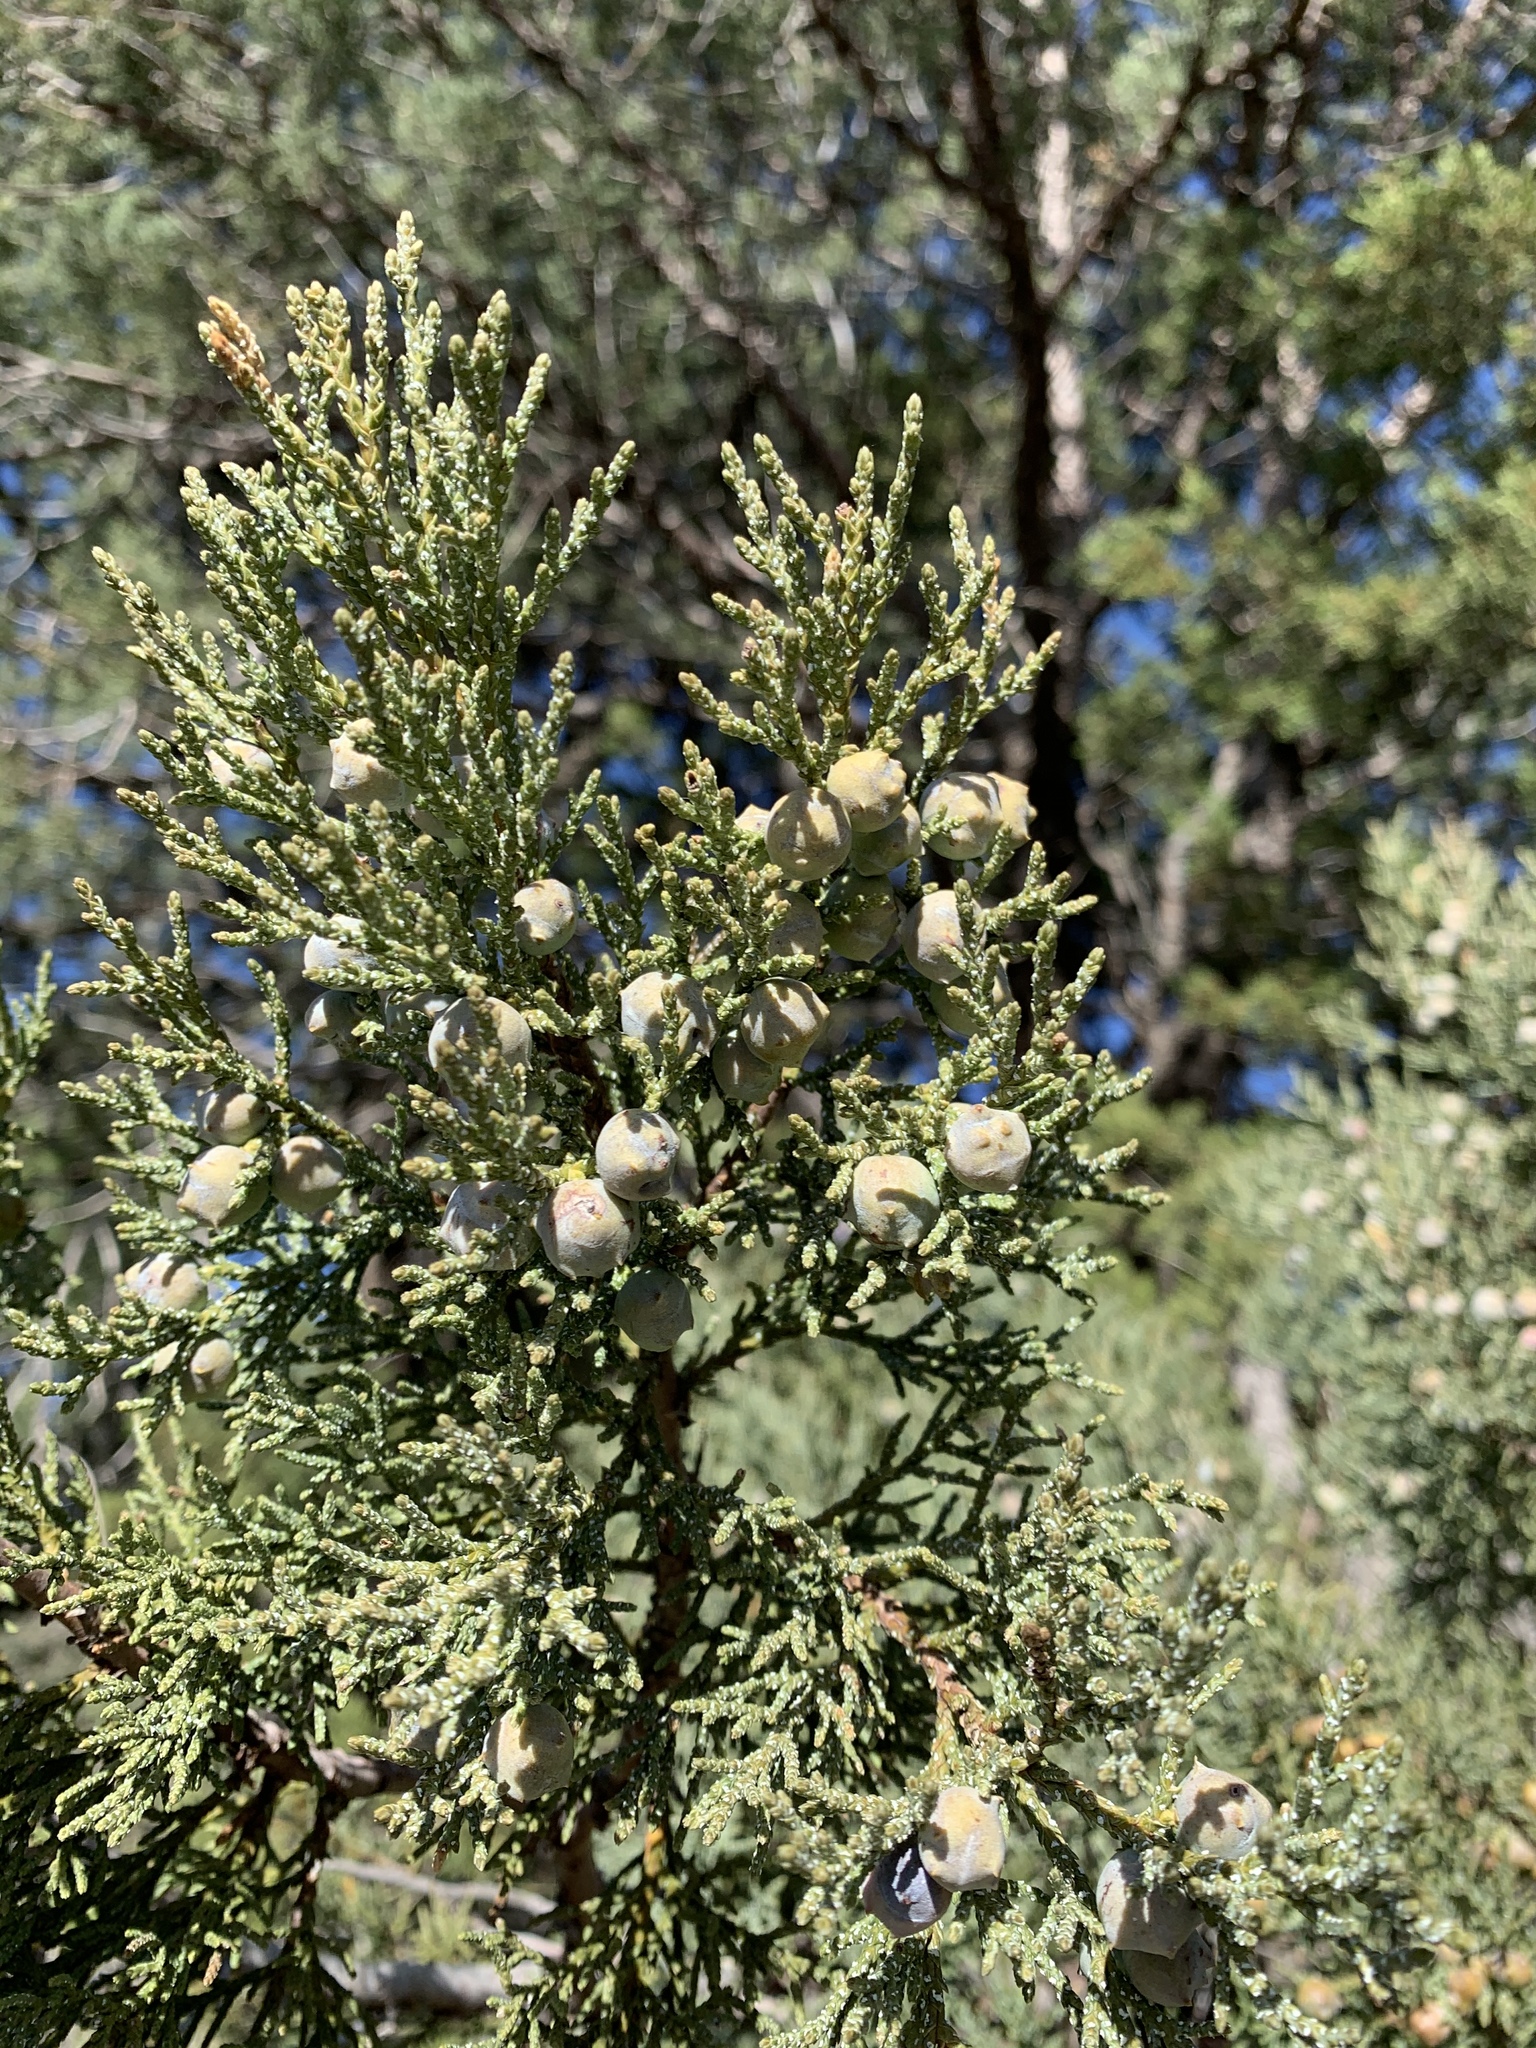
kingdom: Plantae
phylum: Tracheophyta
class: Pinopsida
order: Pinales
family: Cupressaceae
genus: Juniperus
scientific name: Juniperus deppeana
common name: Alligator juniper
